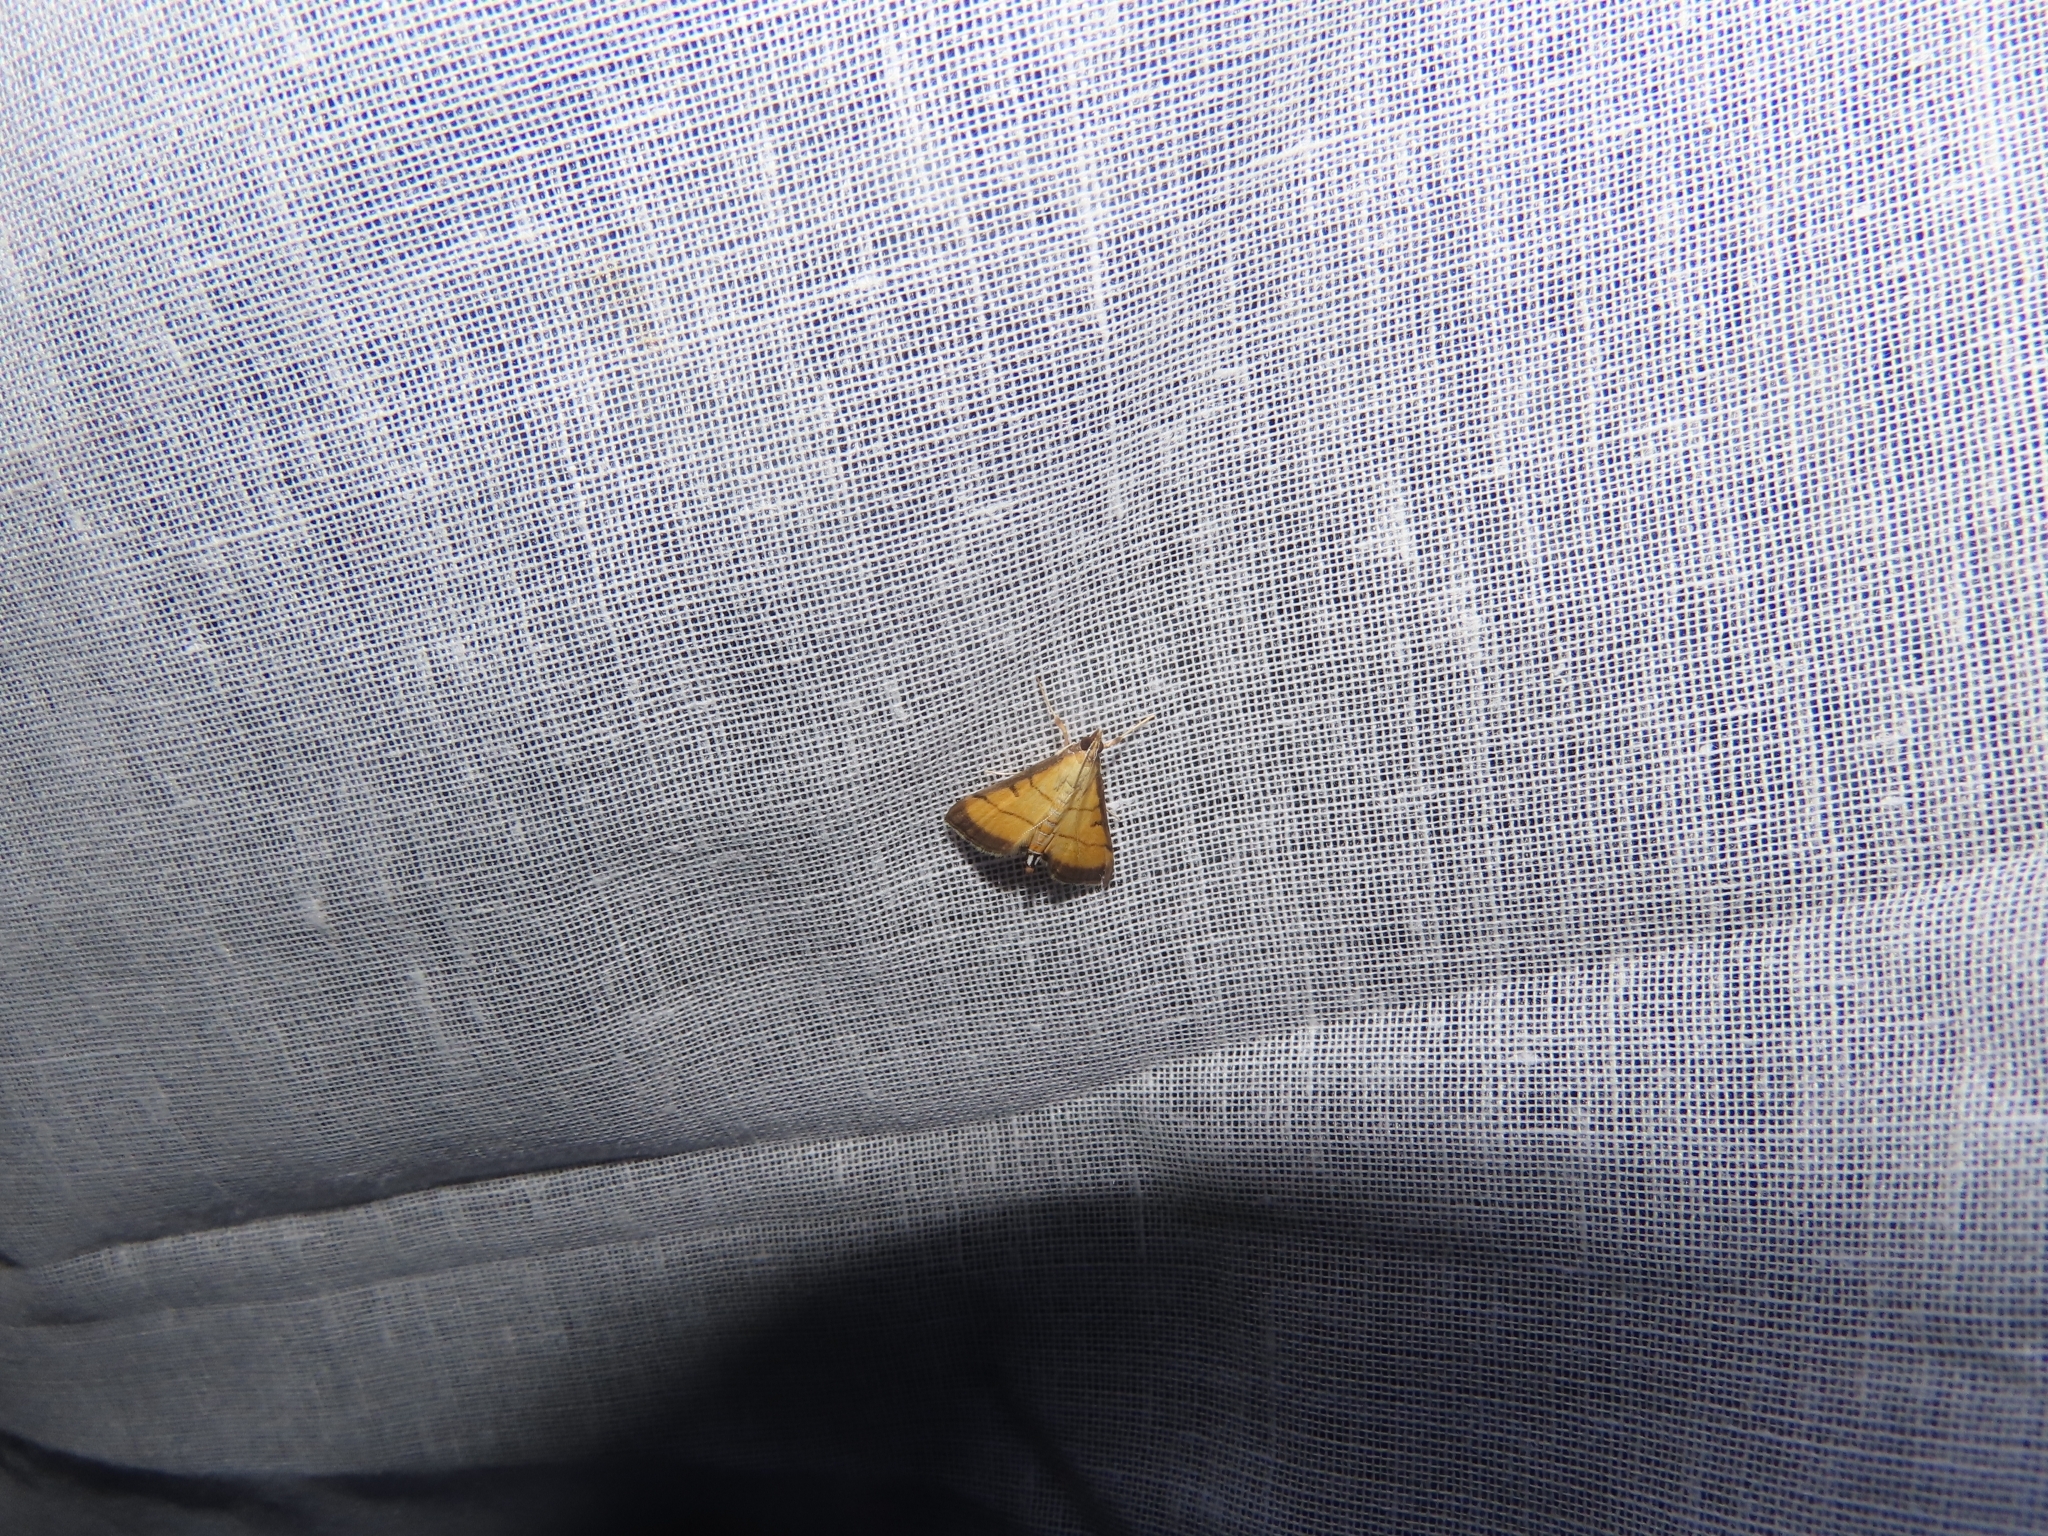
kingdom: Animalia
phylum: Arthropoda
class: Insecta
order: Lepidoptera
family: Crambidae
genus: Cnaphalocrocis
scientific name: Cnaphalocrocis medinalis
